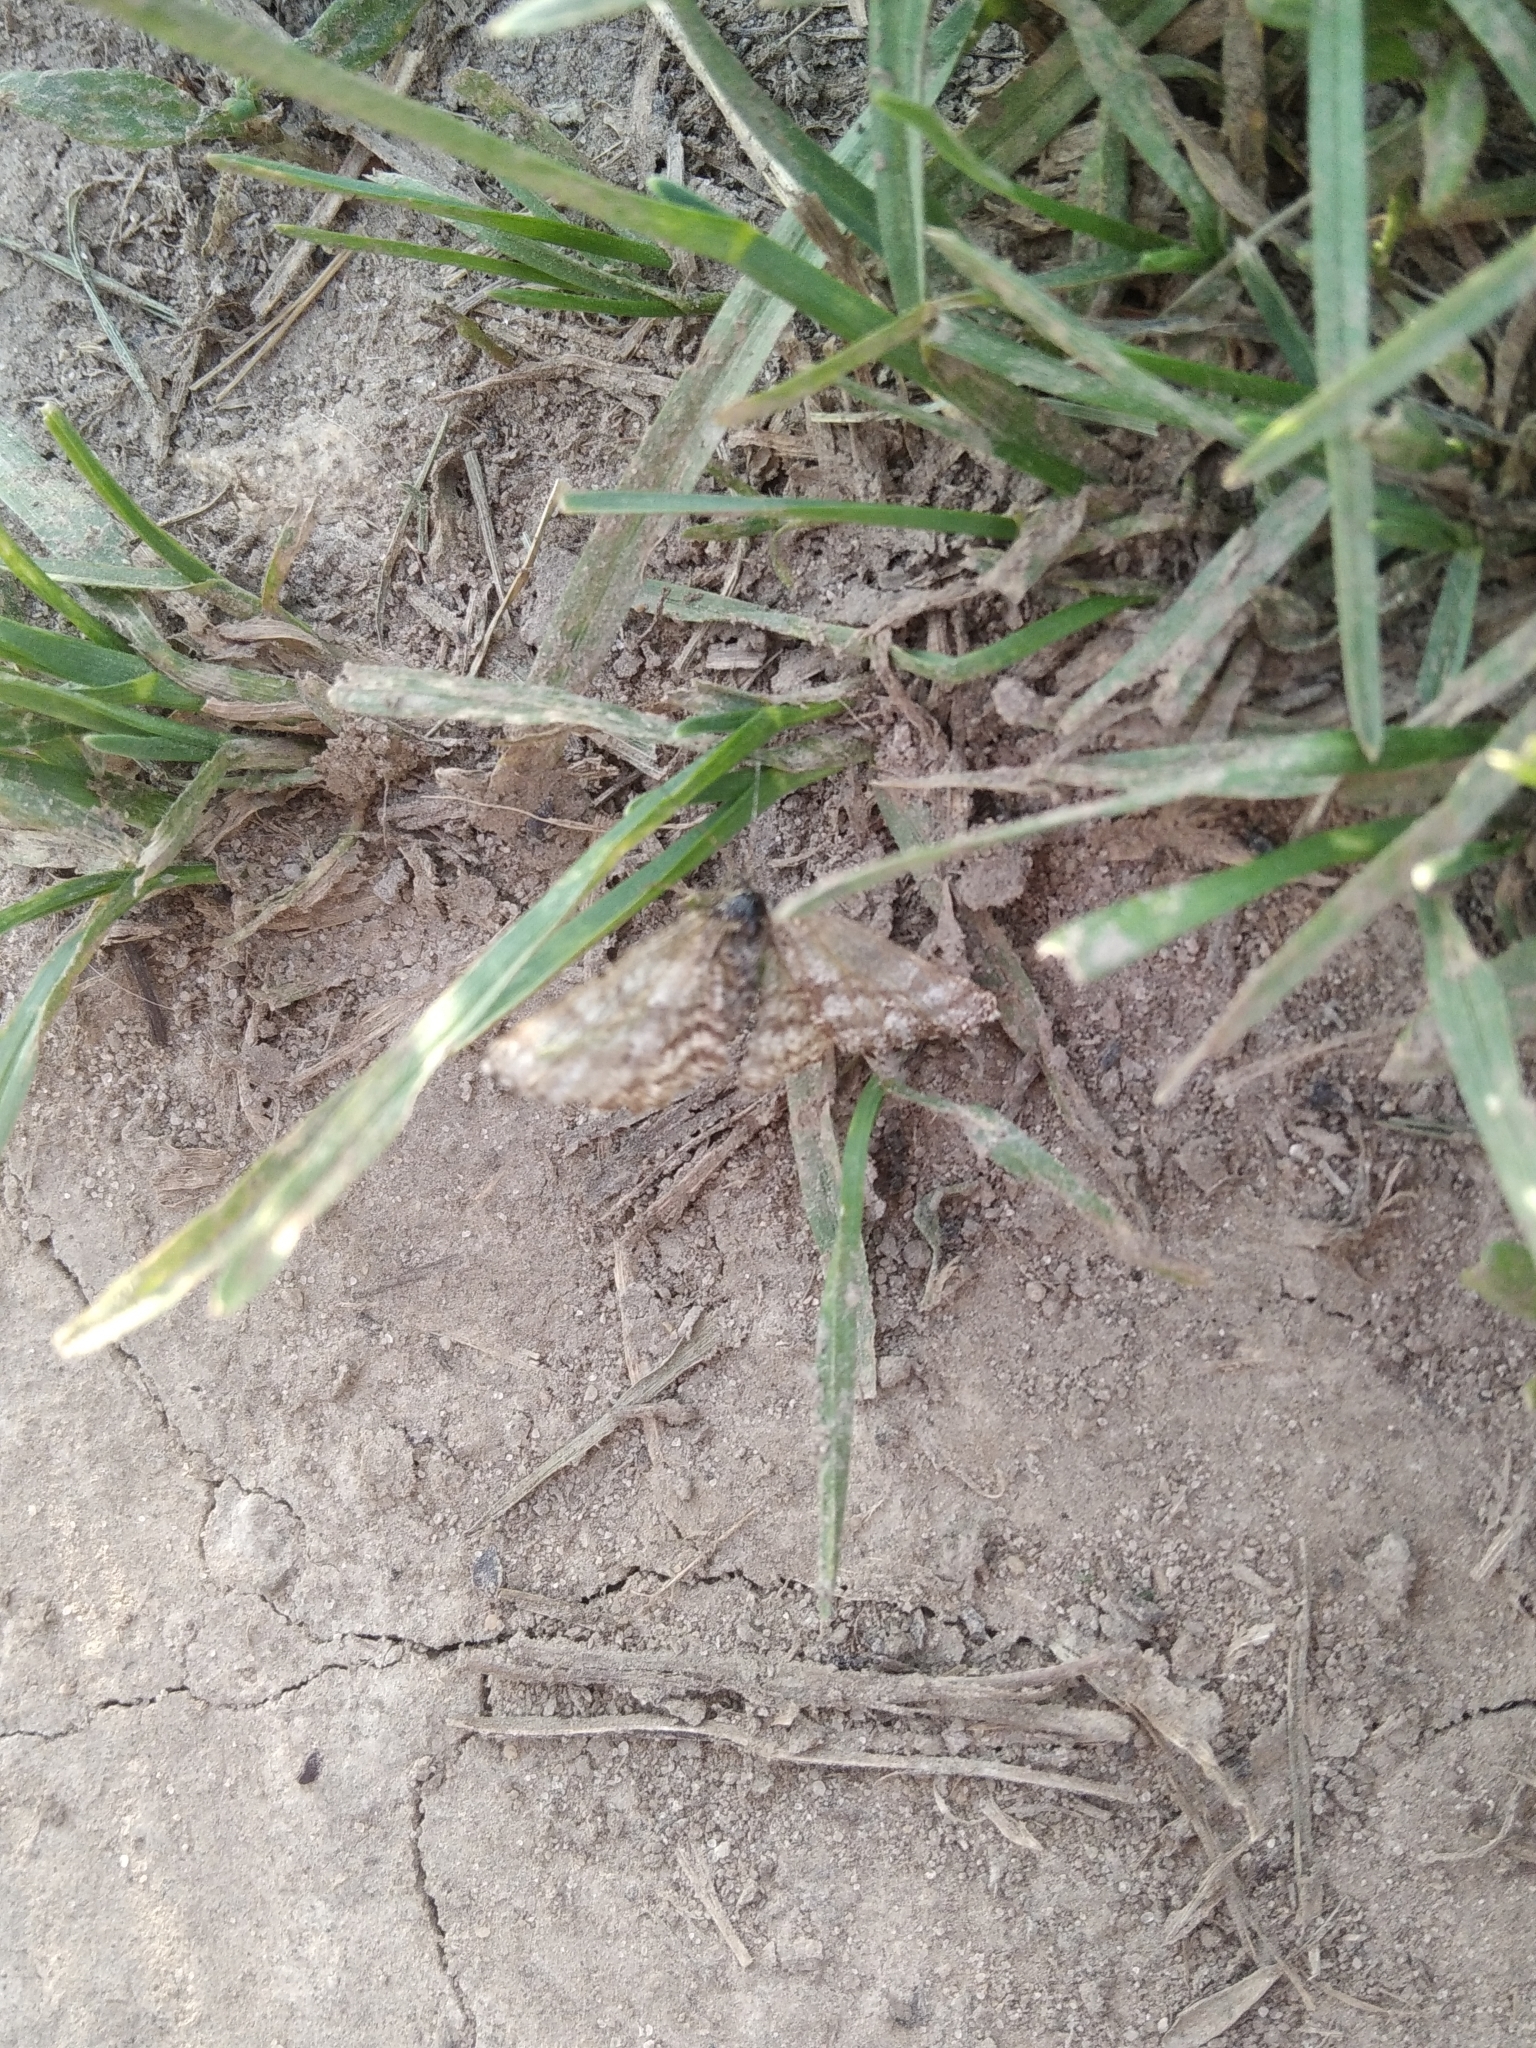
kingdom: Animalia
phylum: Arthropoda
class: Insecta
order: Lepidoptera
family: Geometridae
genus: Ematurga
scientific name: Ematurga atomaria
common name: Common heath
